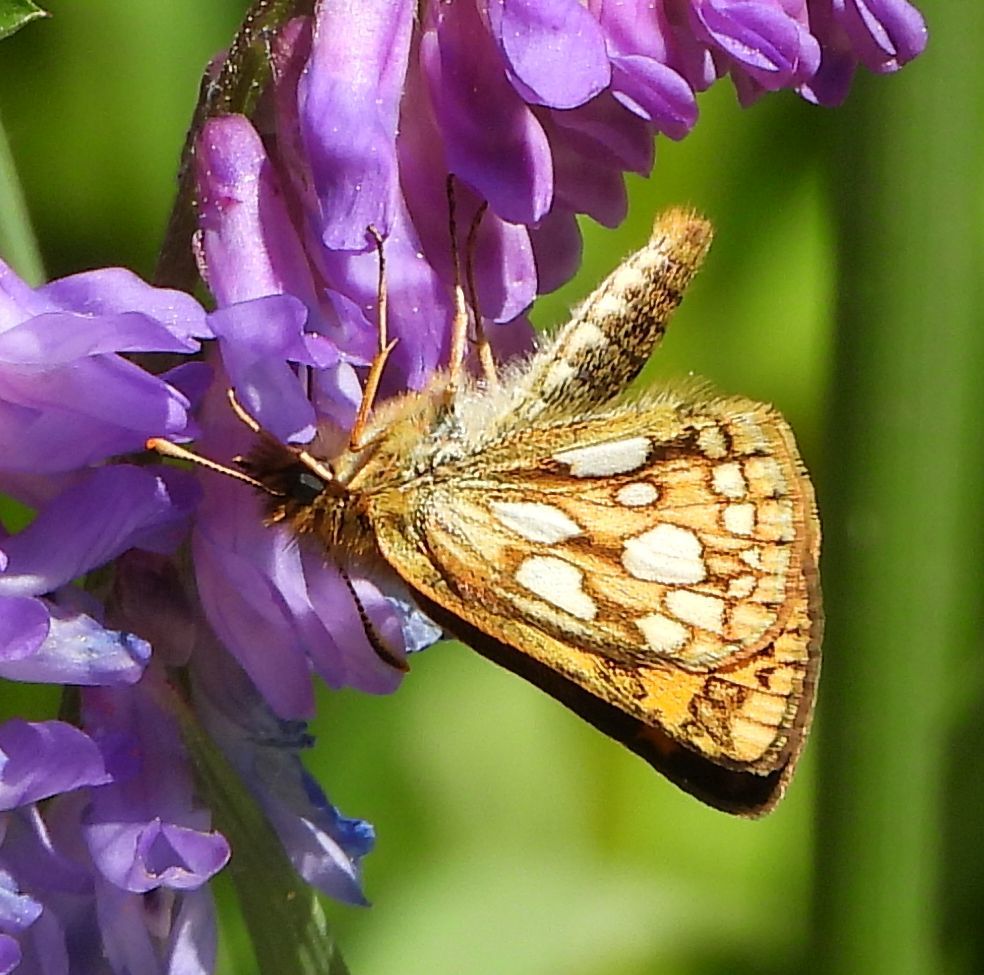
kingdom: Animalia
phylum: Arthropoda
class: Insecta
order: Lepidoptera
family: Hesperiidae
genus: Carterocephalus
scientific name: Carterocephalus mandan
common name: Arctic skipperling
